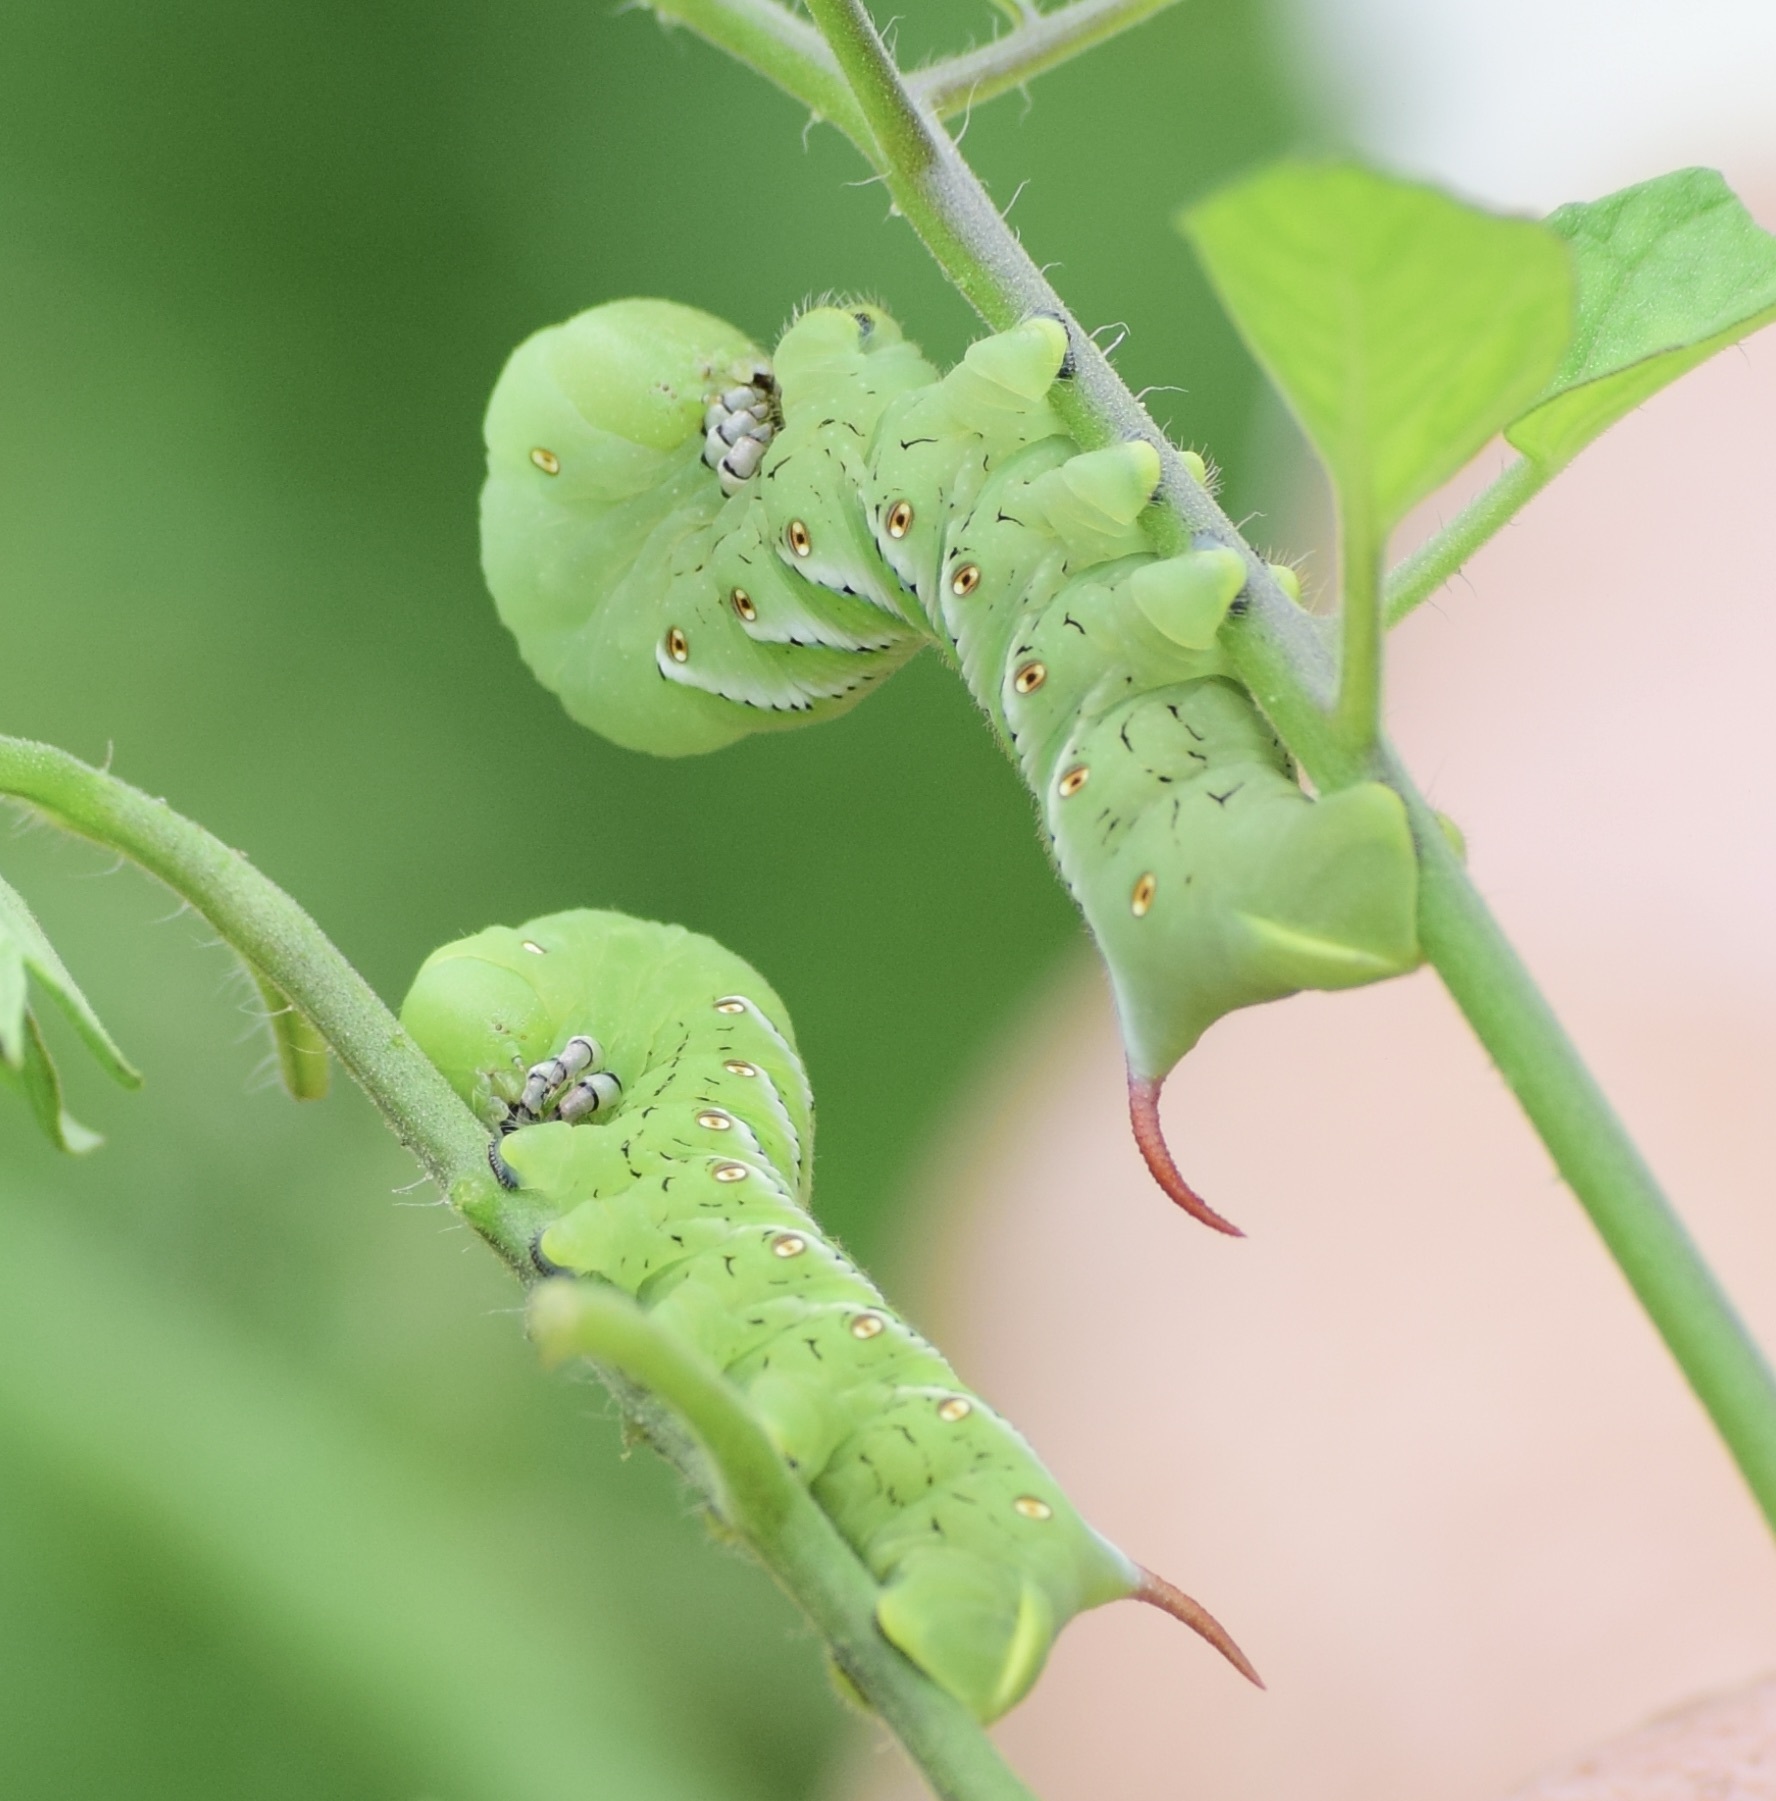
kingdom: Animalia
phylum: Arthropoda
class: Insecta
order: Lepidoptera
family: Sphingidae
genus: Manduca
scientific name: Manduca sexta
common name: Carolina sphinx
